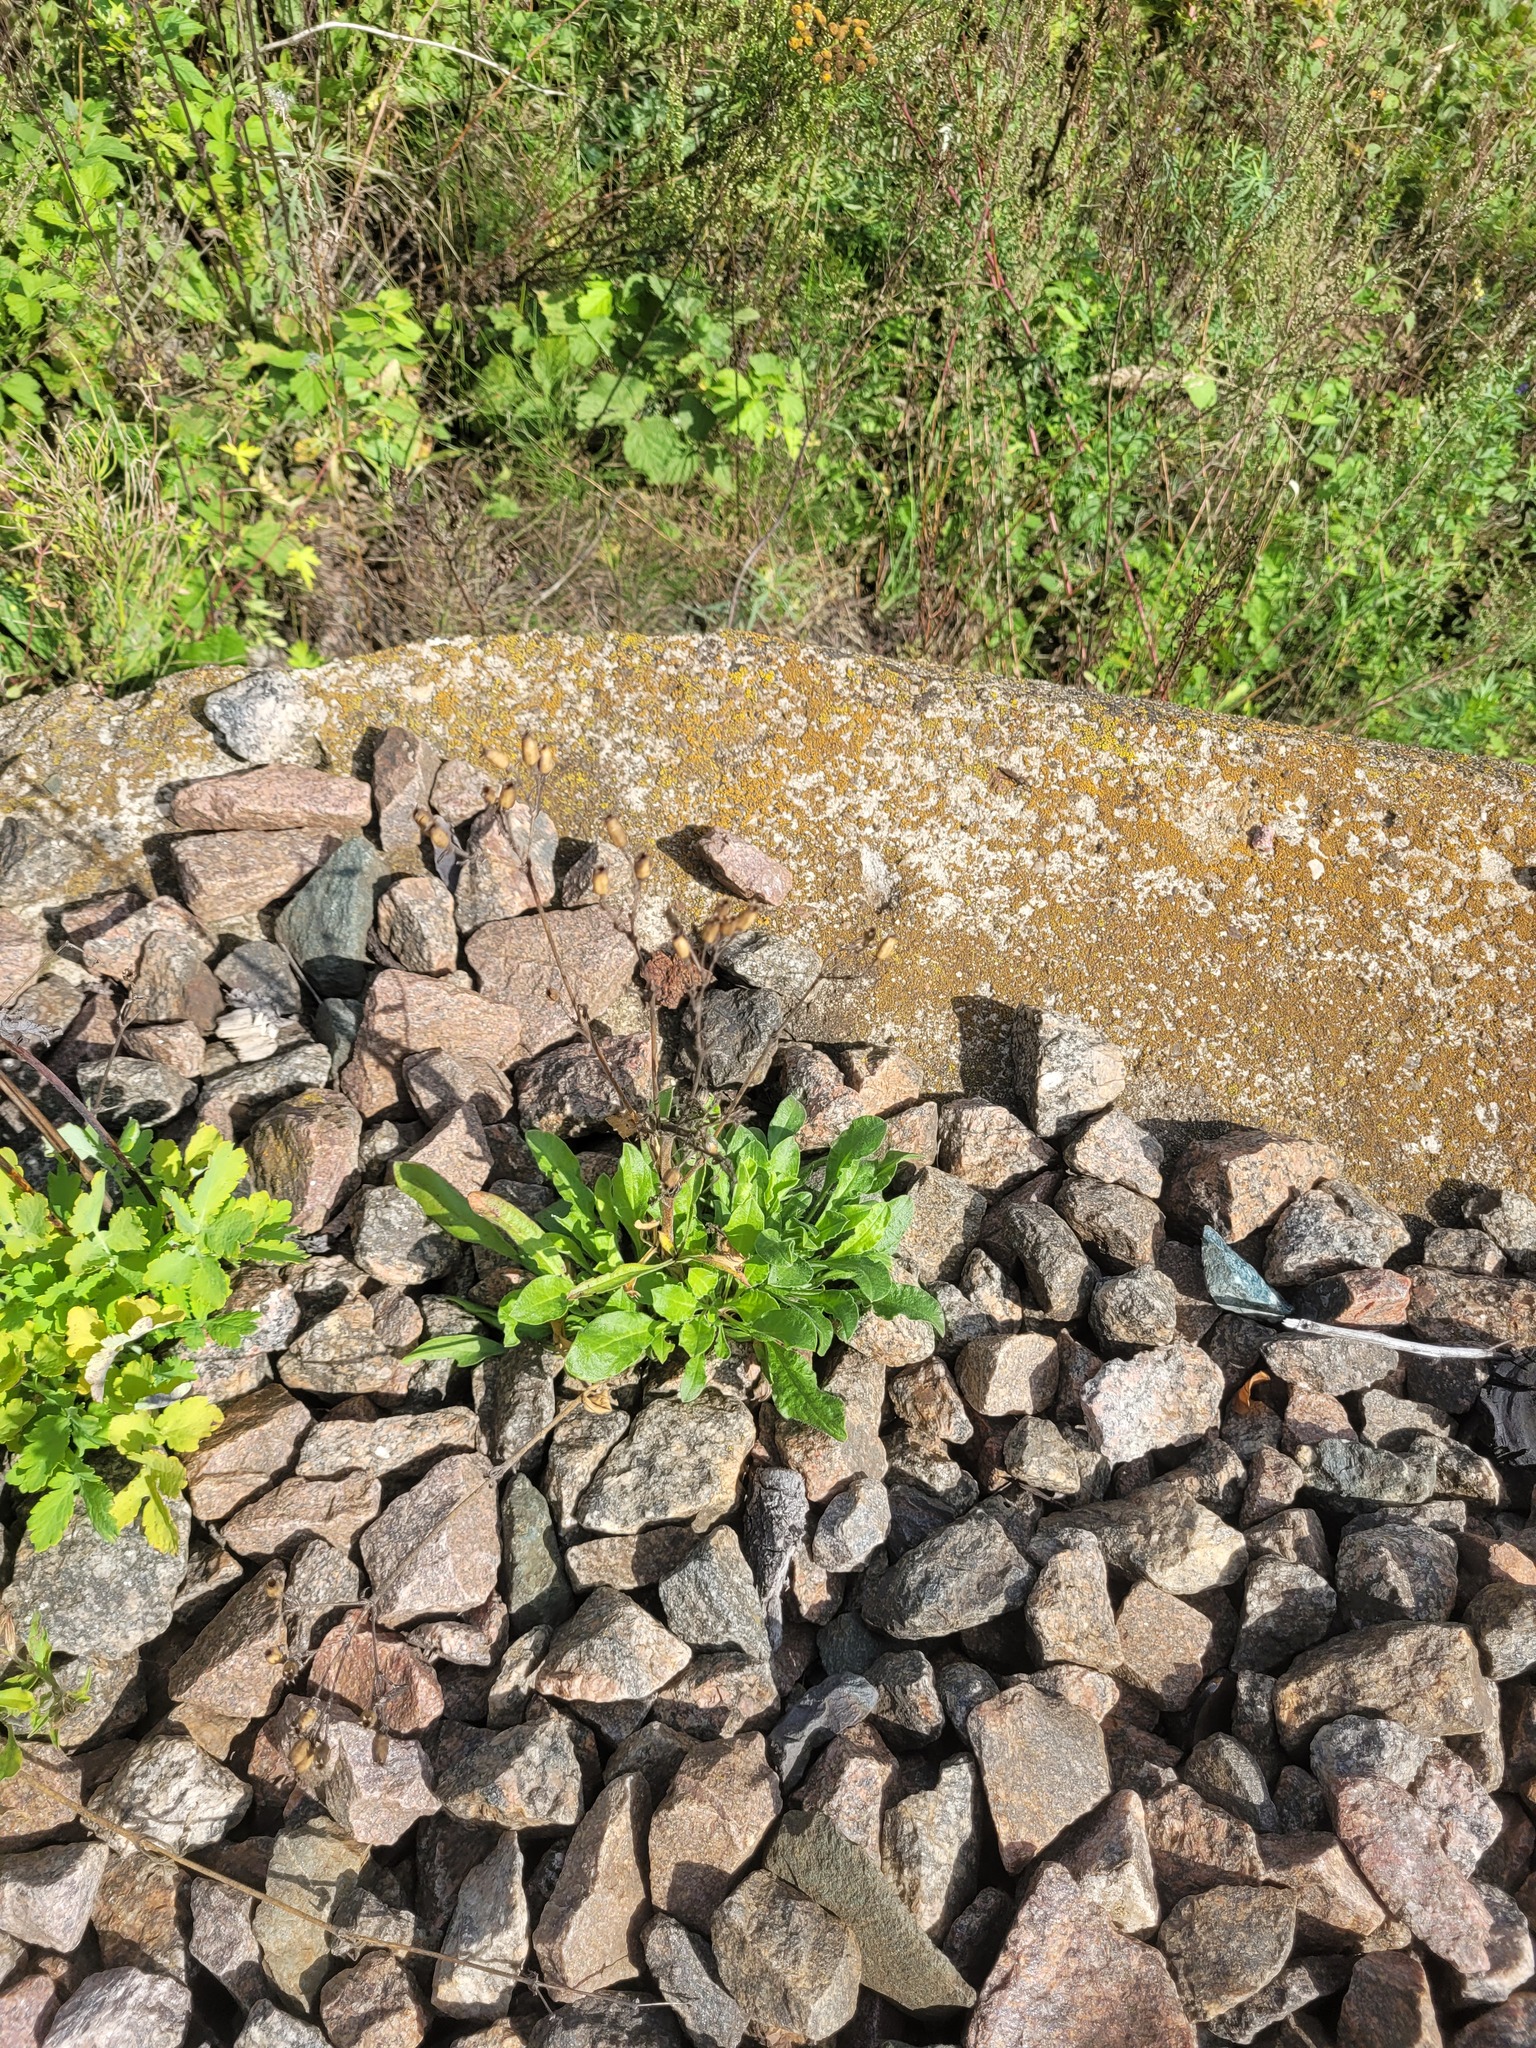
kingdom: Plantae
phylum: Tracheophyta
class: Magnoliopsida
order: Caryophyllales
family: Caryophyllaceae
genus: Silene
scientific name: Silene nutans
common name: Nottingham catchfly
